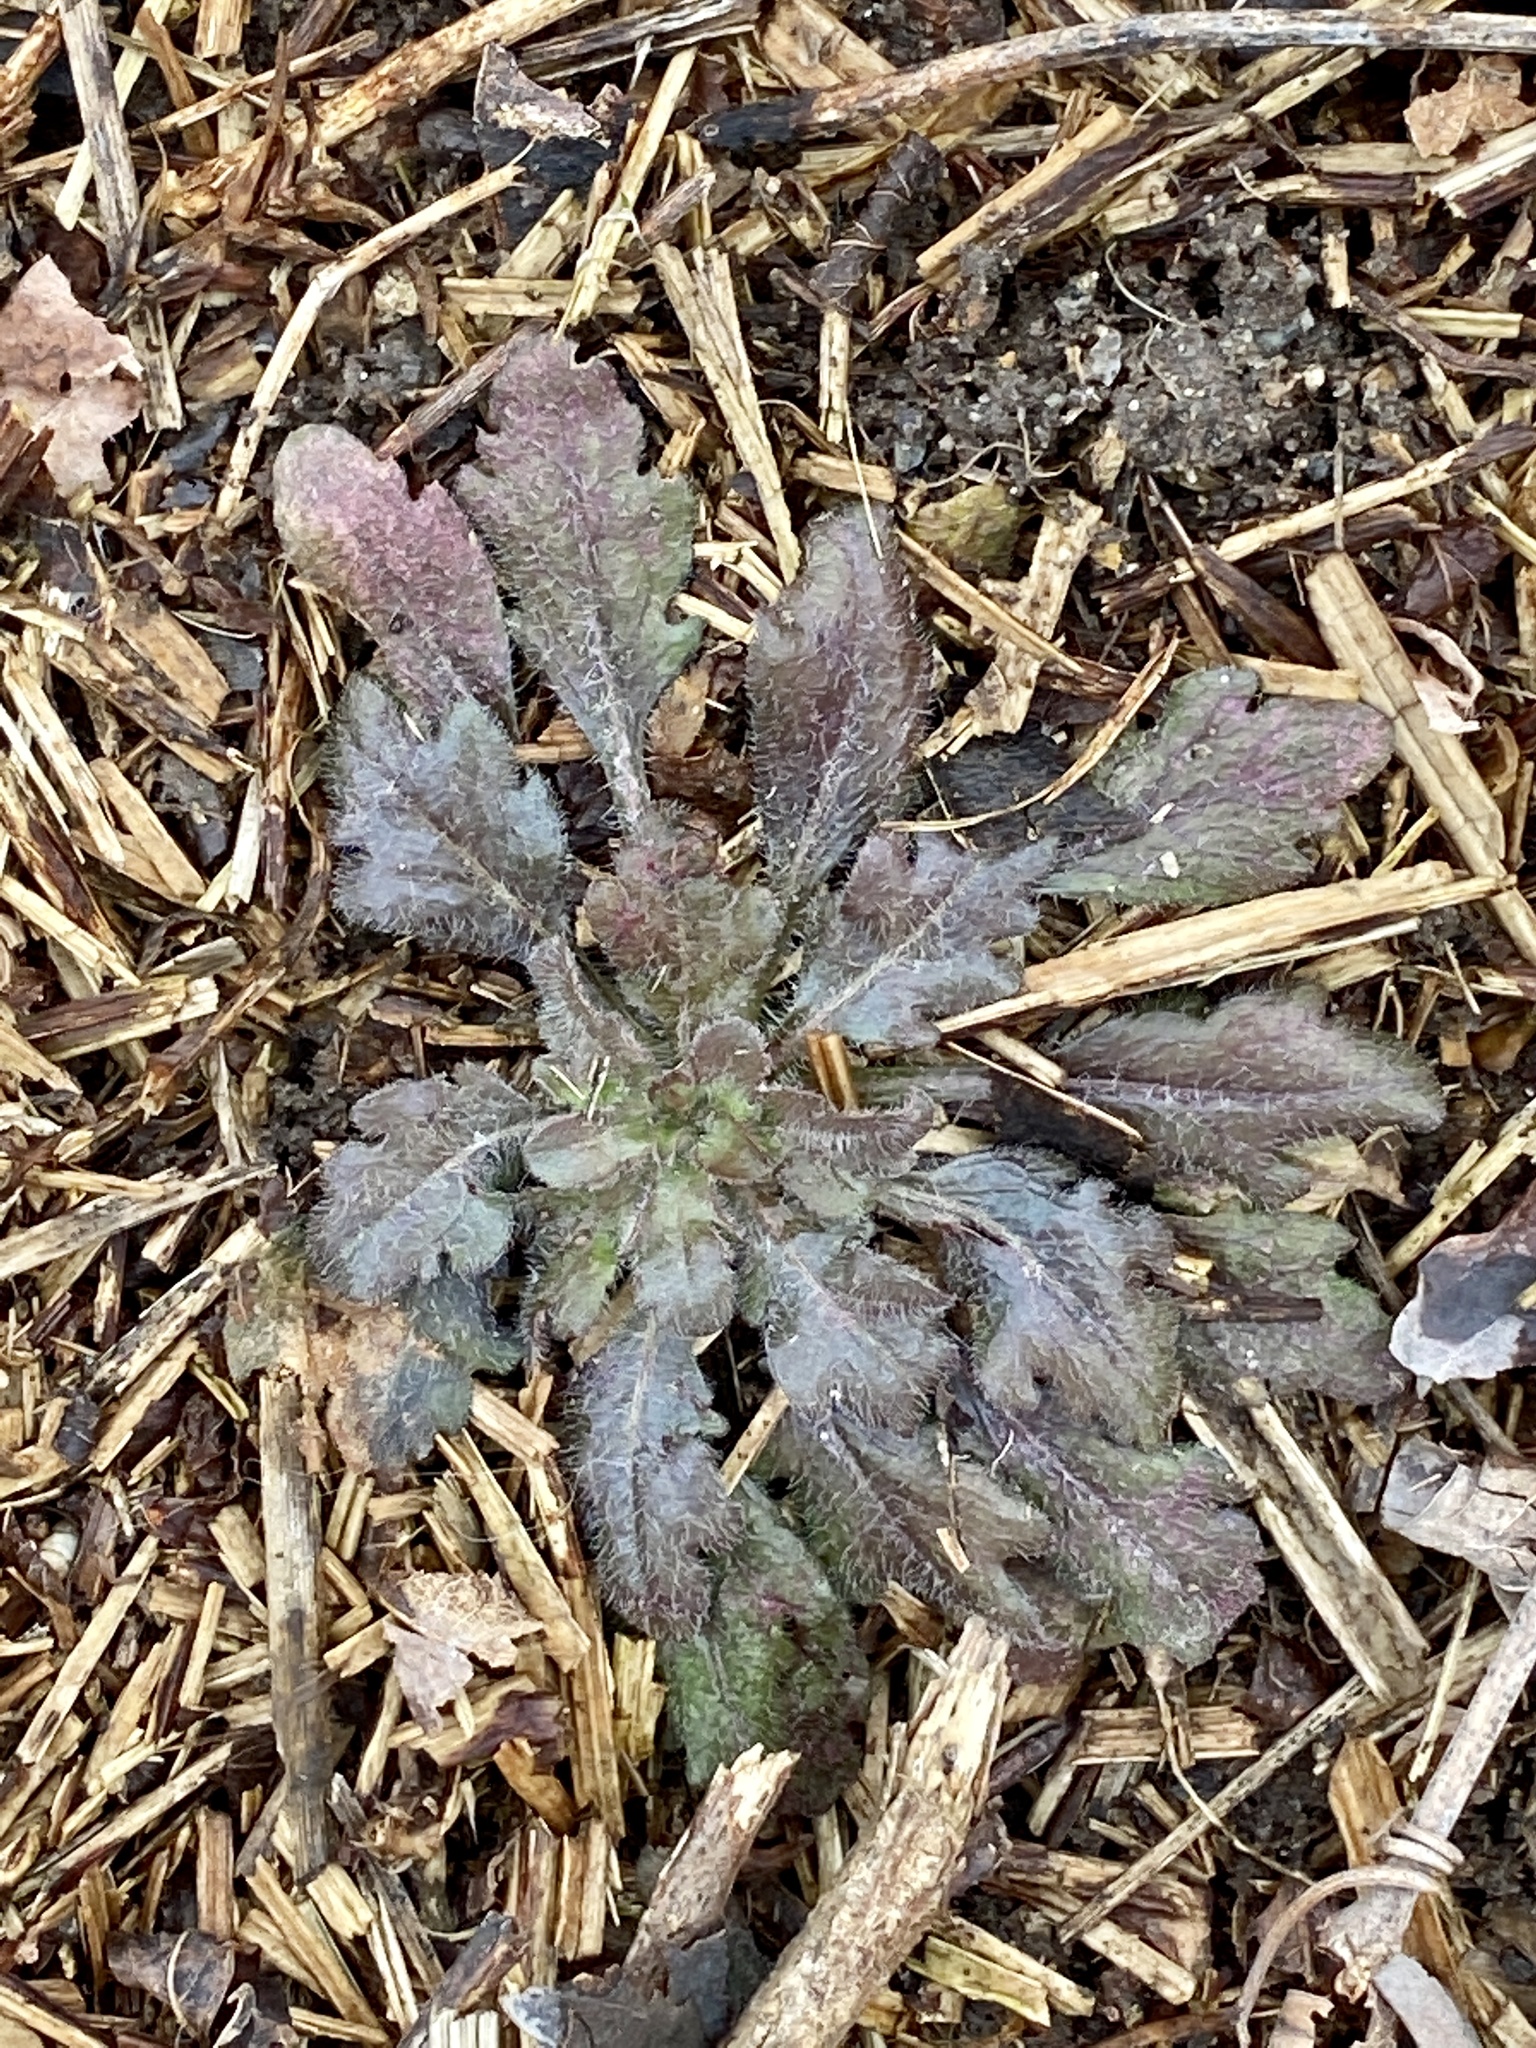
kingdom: Plantae
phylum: Tracheophyta
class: Magnoliopsida
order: Asterales
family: Asteraceae
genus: Erigeron
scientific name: Erigeron canadensis
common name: Canadian fleabane
